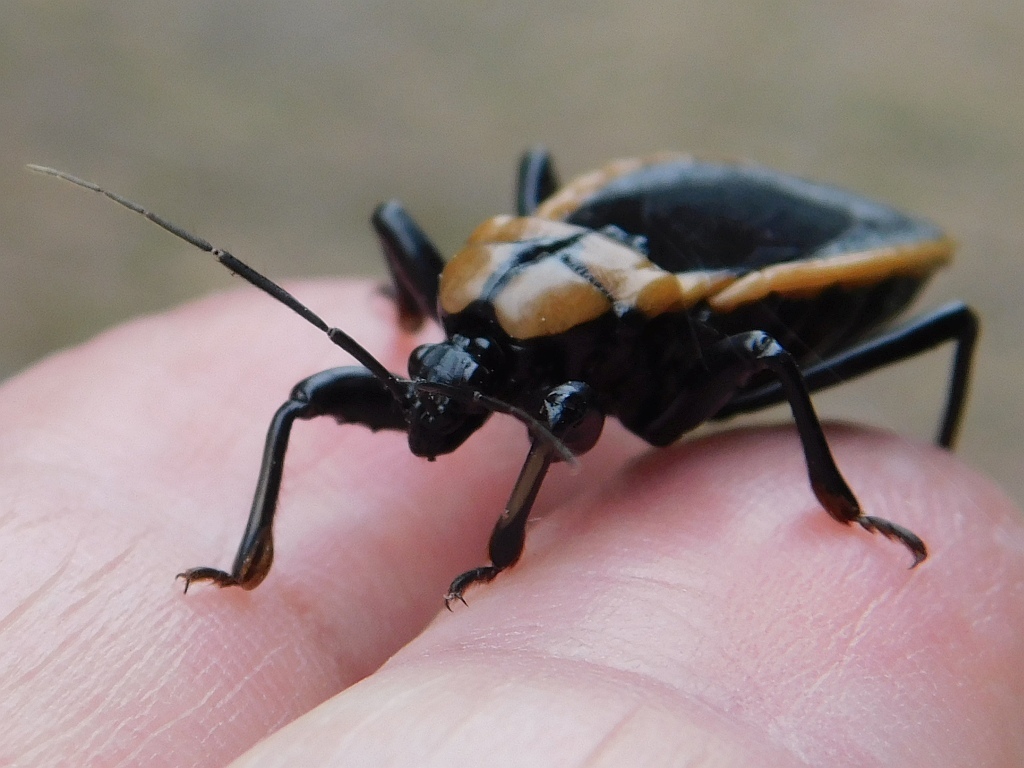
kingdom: Animalia
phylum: Arthropoda
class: Insecta
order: Hemiptera
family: Reduviidae
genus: Ectrichodia
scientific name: Ectrichodia crux
